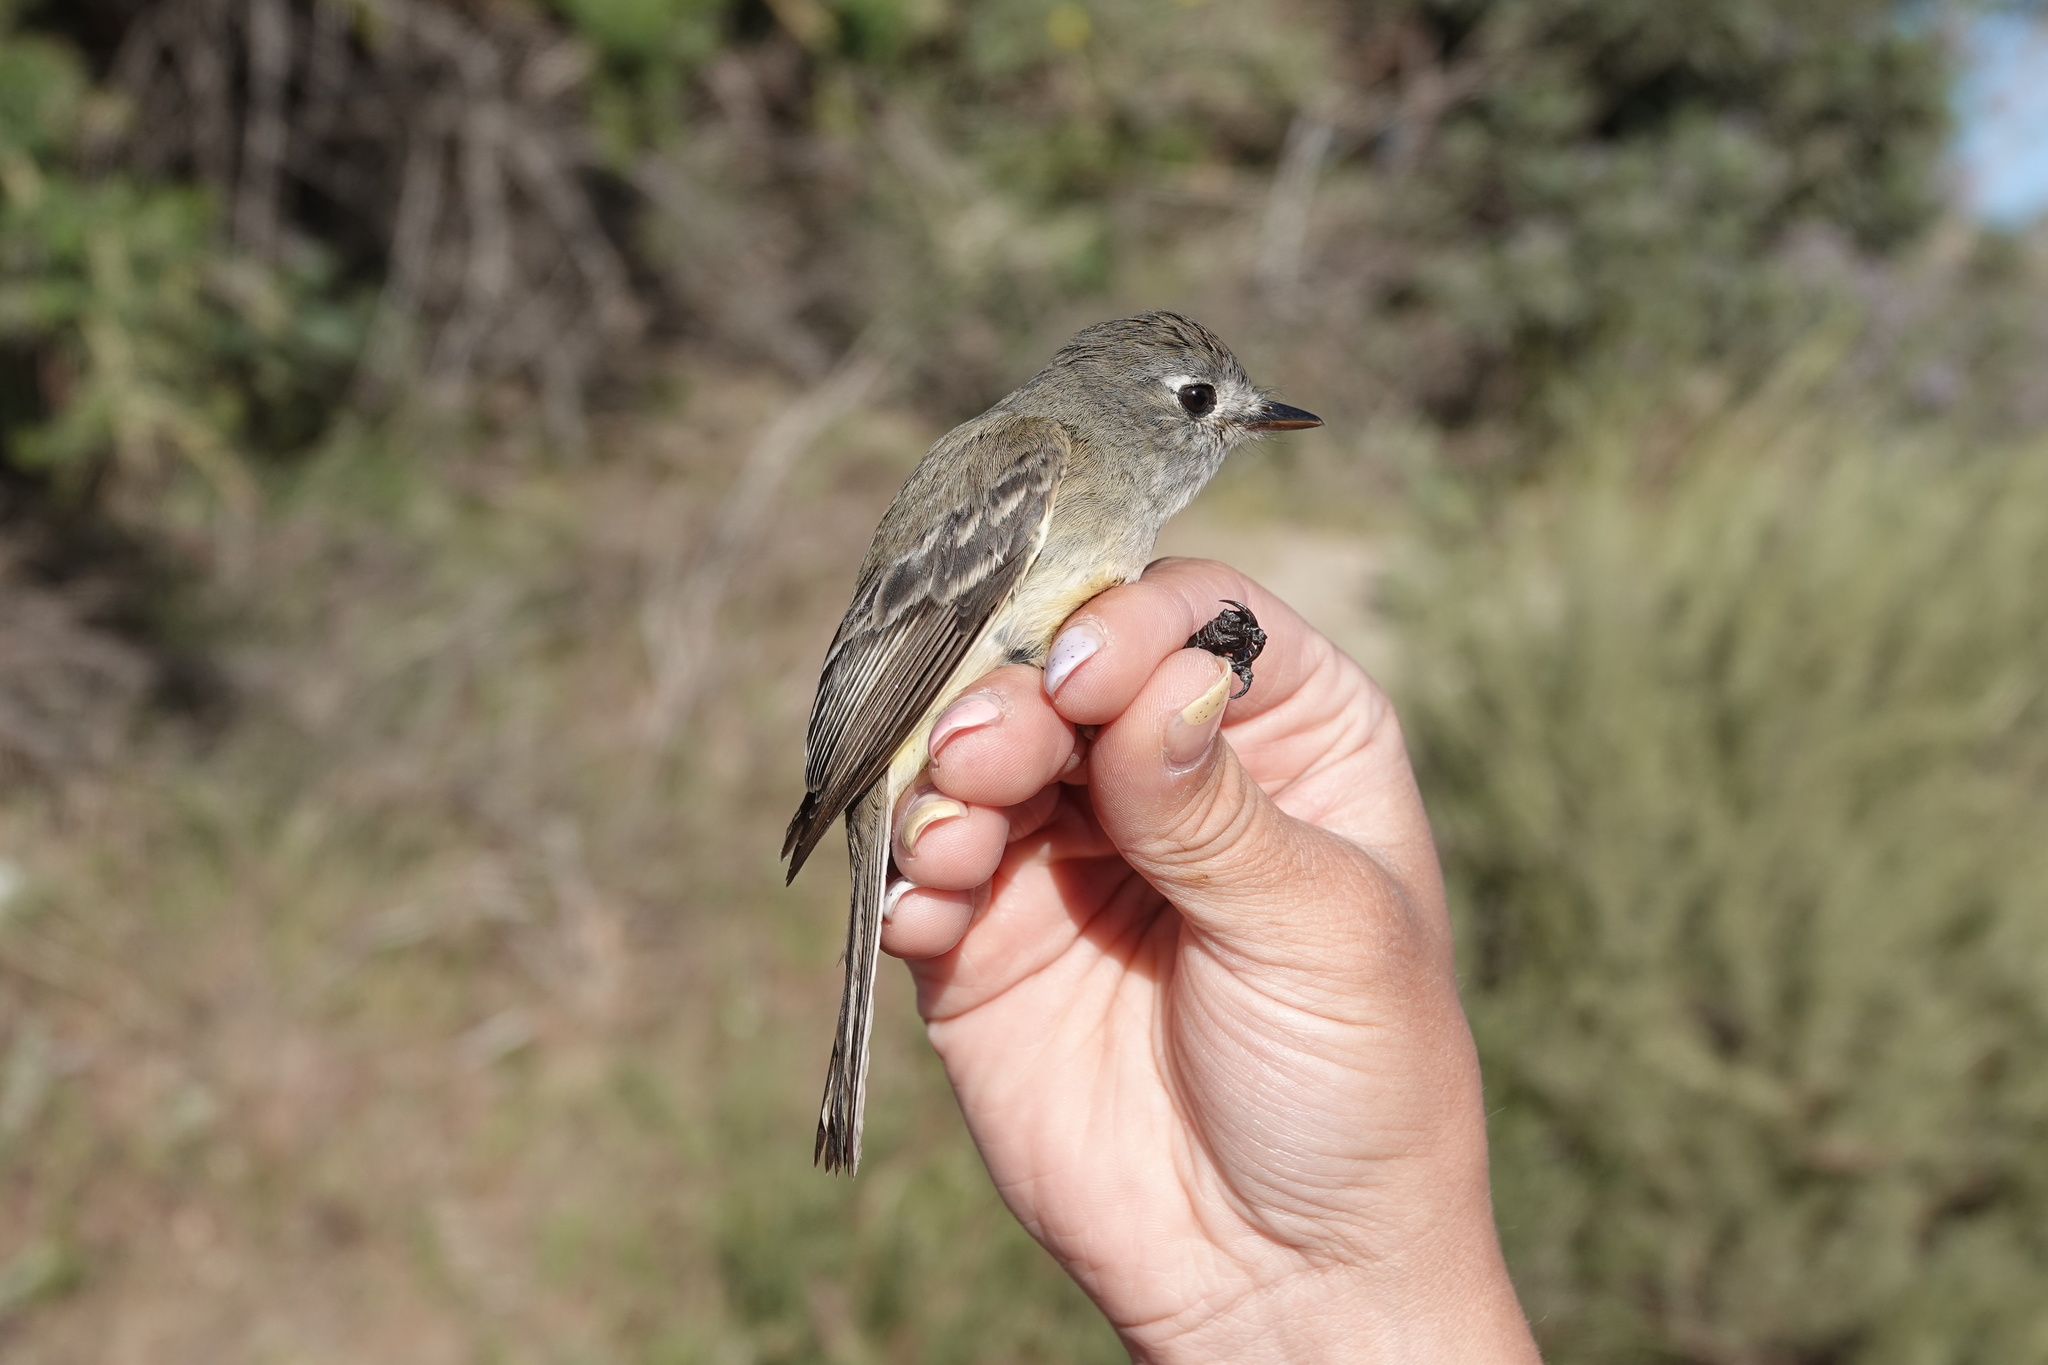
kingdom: Animalia
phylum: Chordata
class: Aves
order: Passeriformes
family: Tyrannidae
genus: Empidonax
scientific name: Empidonax oberholseri
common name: Dusky flycatcher
